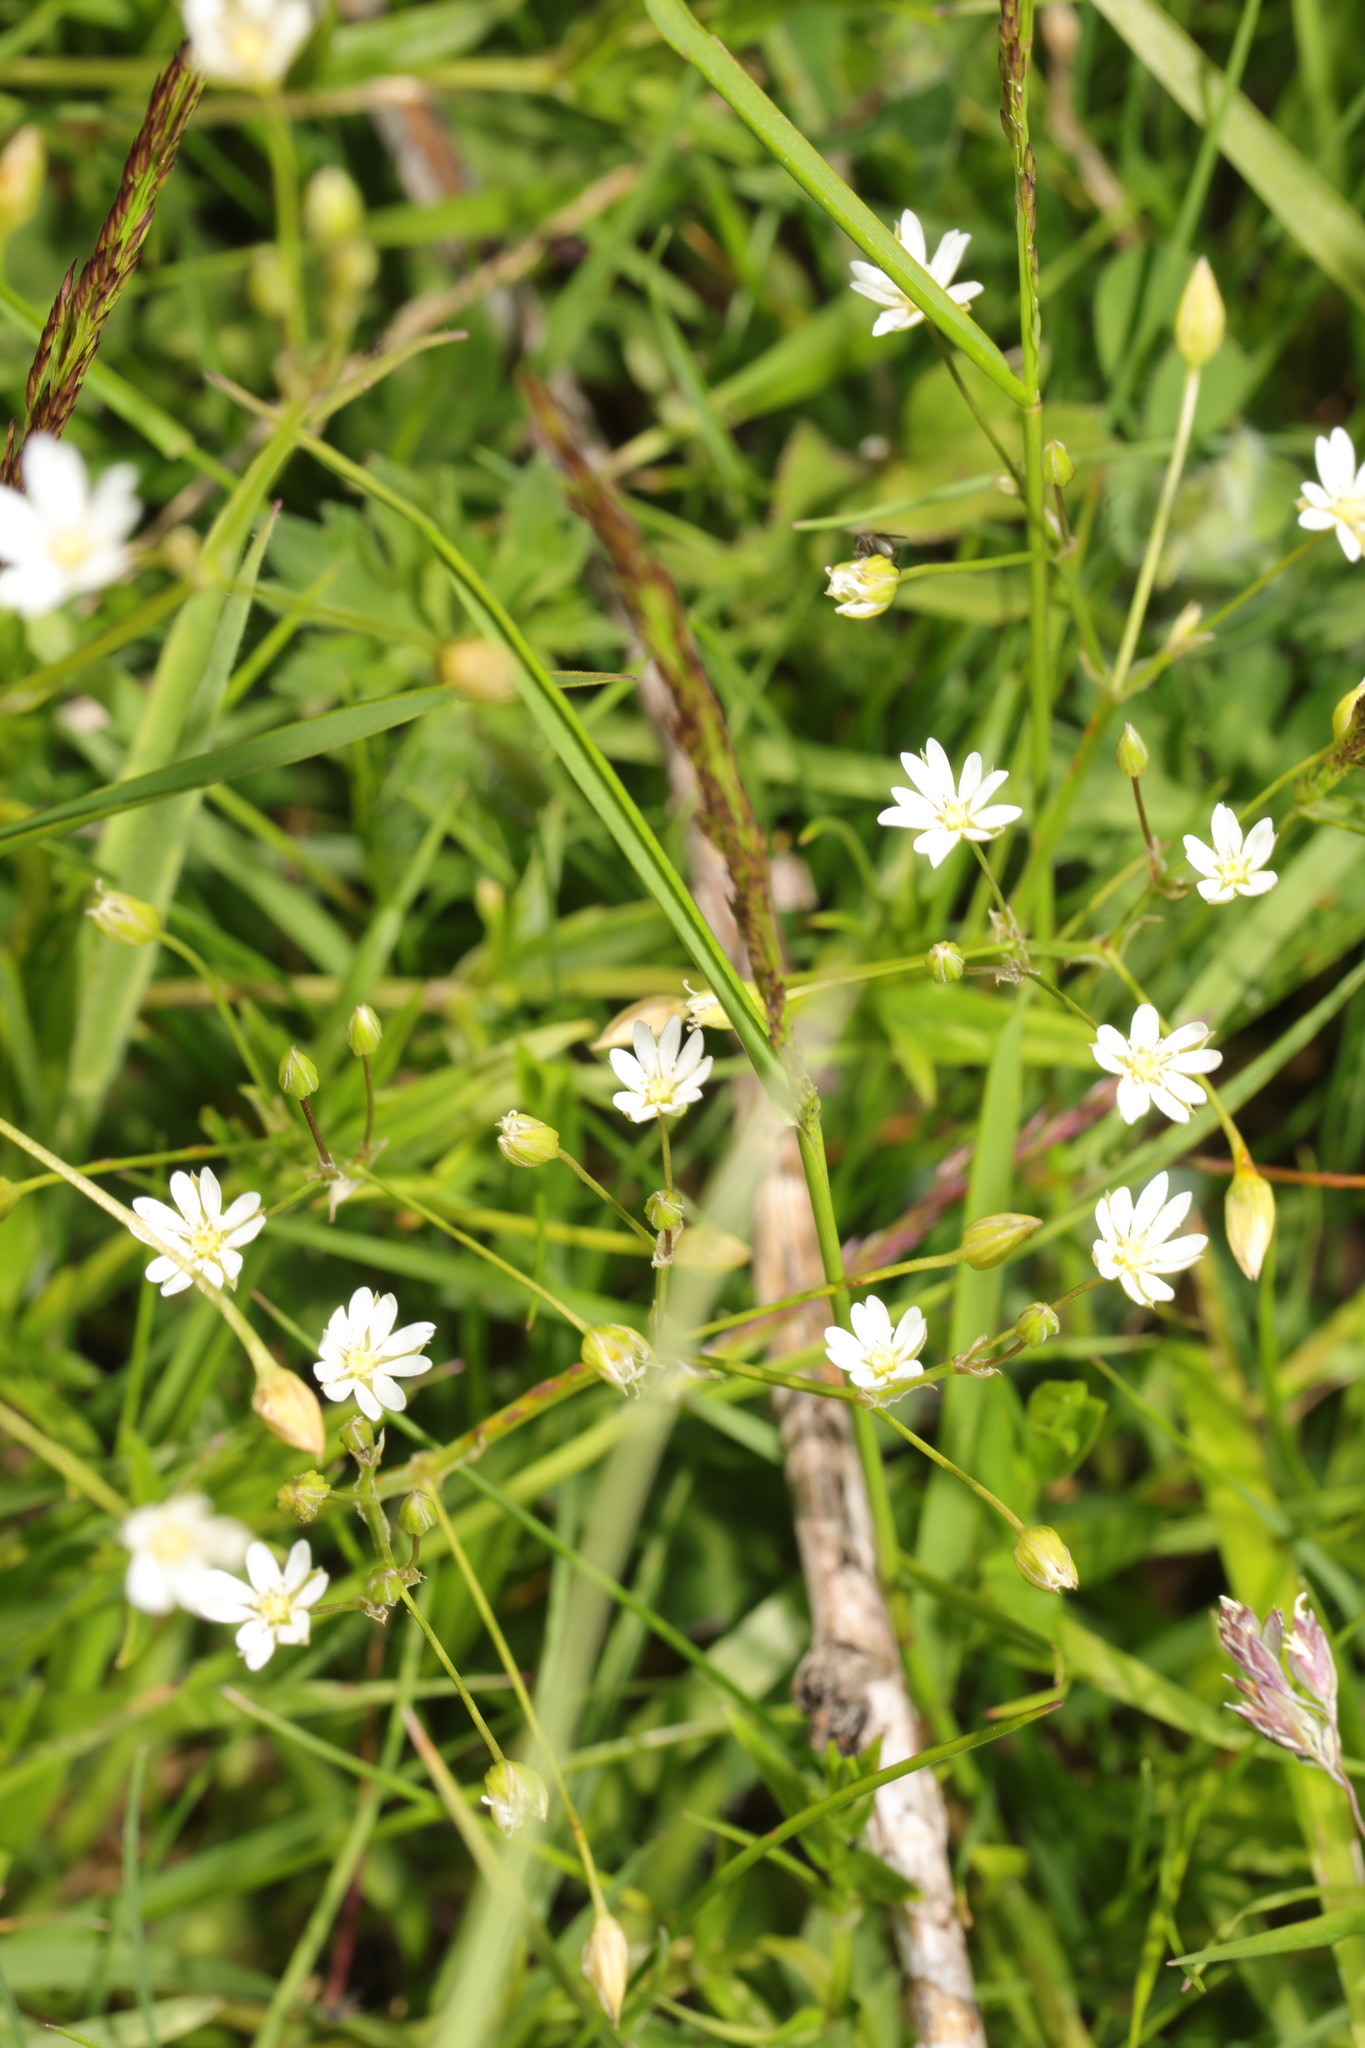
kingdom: Plantae
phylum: Tracheophyta
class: Magnoliopsida
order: Caryophyllales
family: Caryophyllaceae
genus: Stellaria
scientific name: Stellaria graminea
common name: Grass-like starwort
